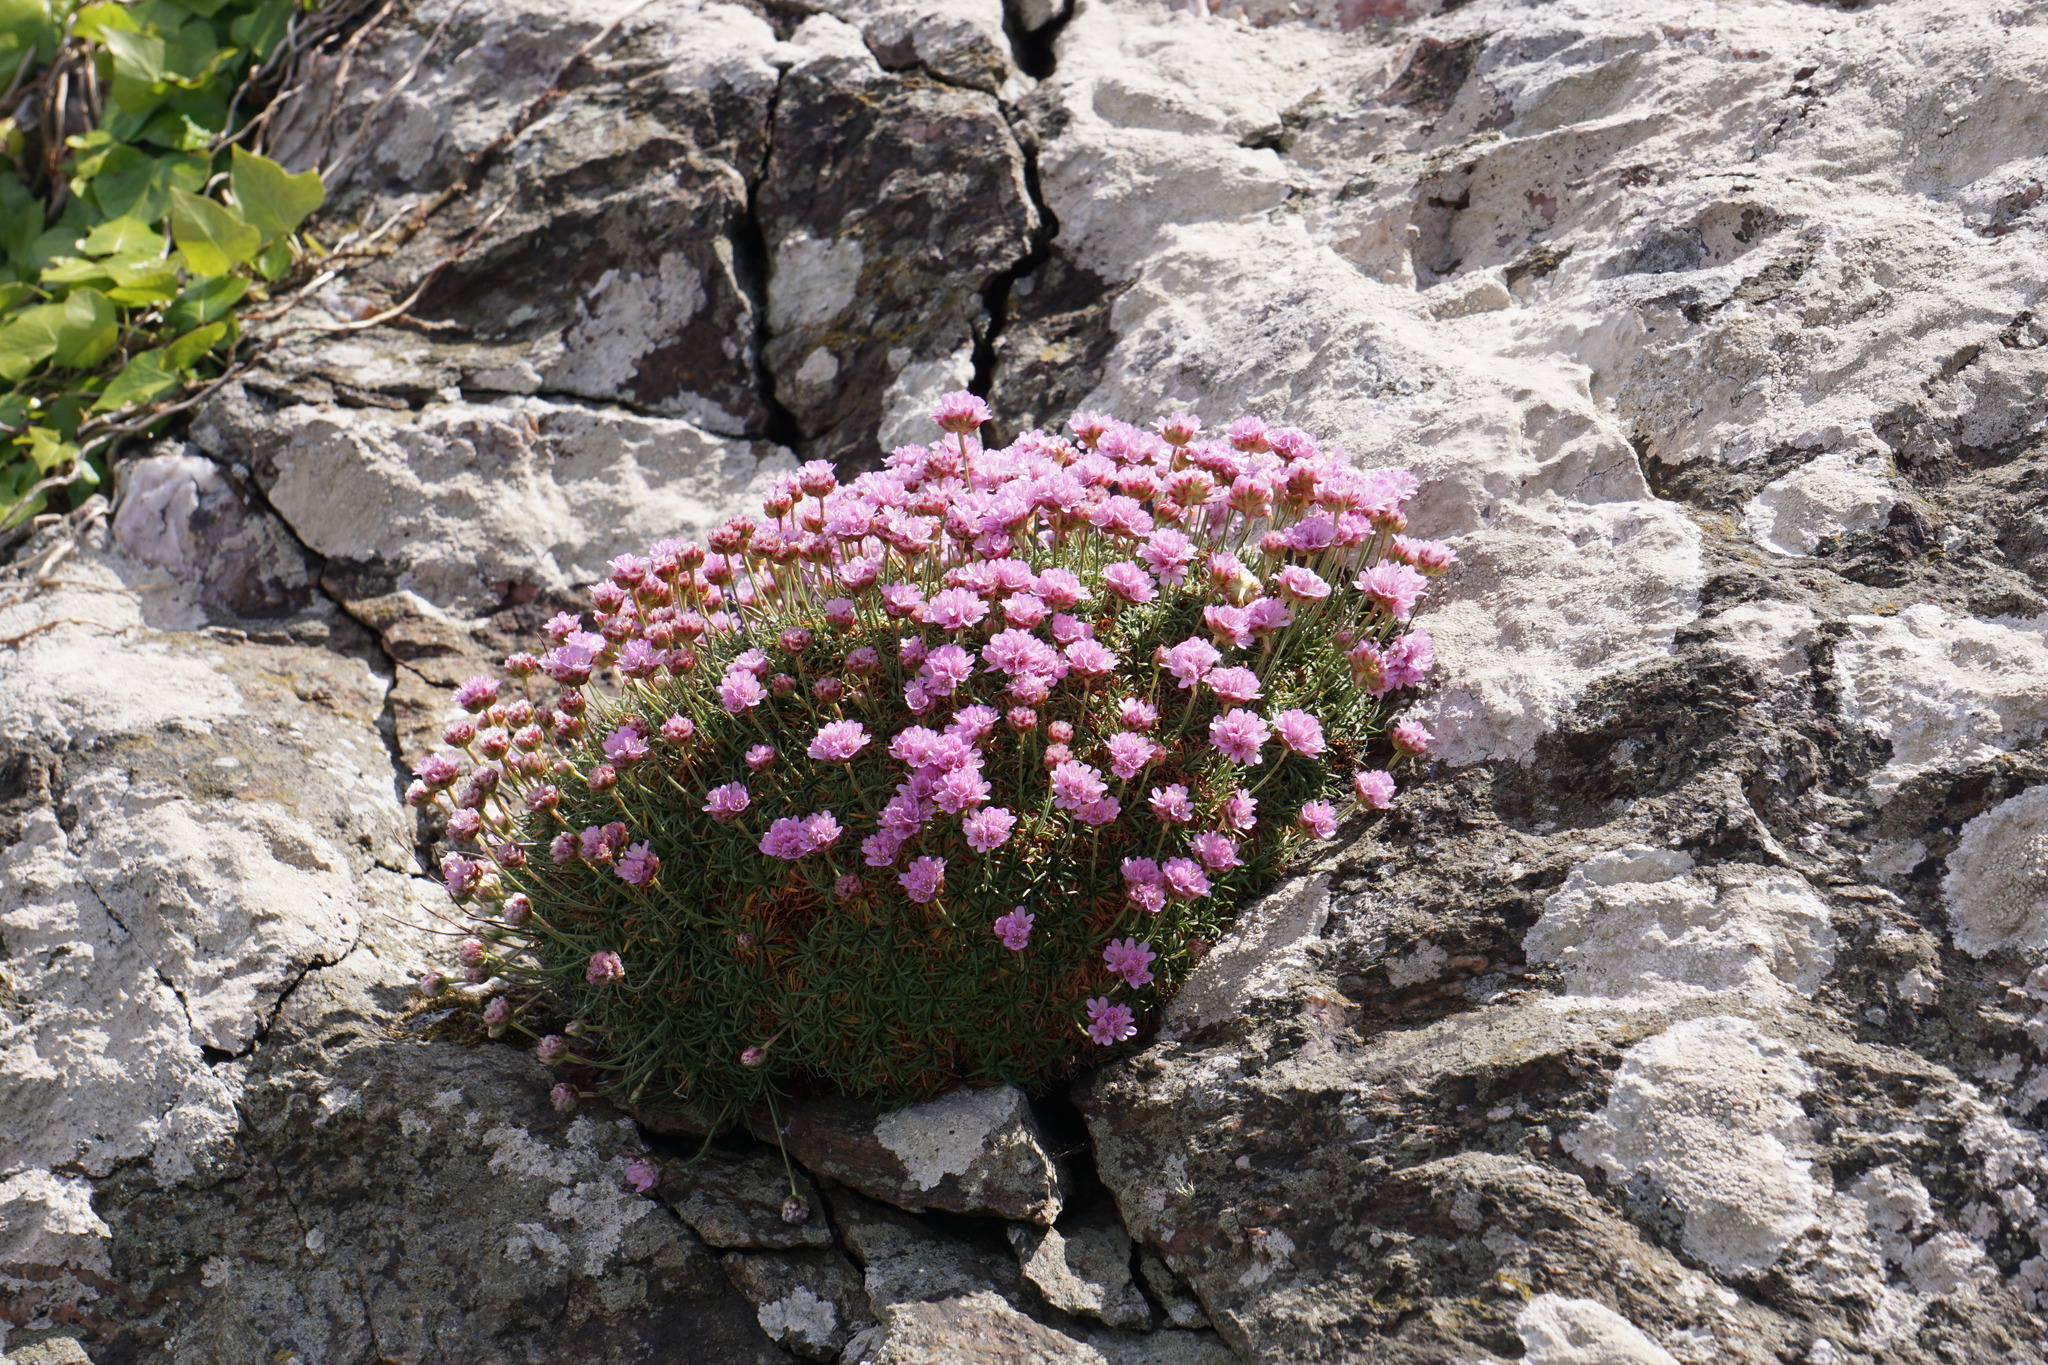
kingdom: Plantae
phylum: Tracheophyta
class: Magnoliopsida
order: Caryophyllales
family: Plumbaginaceae
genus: Armeria
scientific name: Armeria maritima
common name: Thrift
